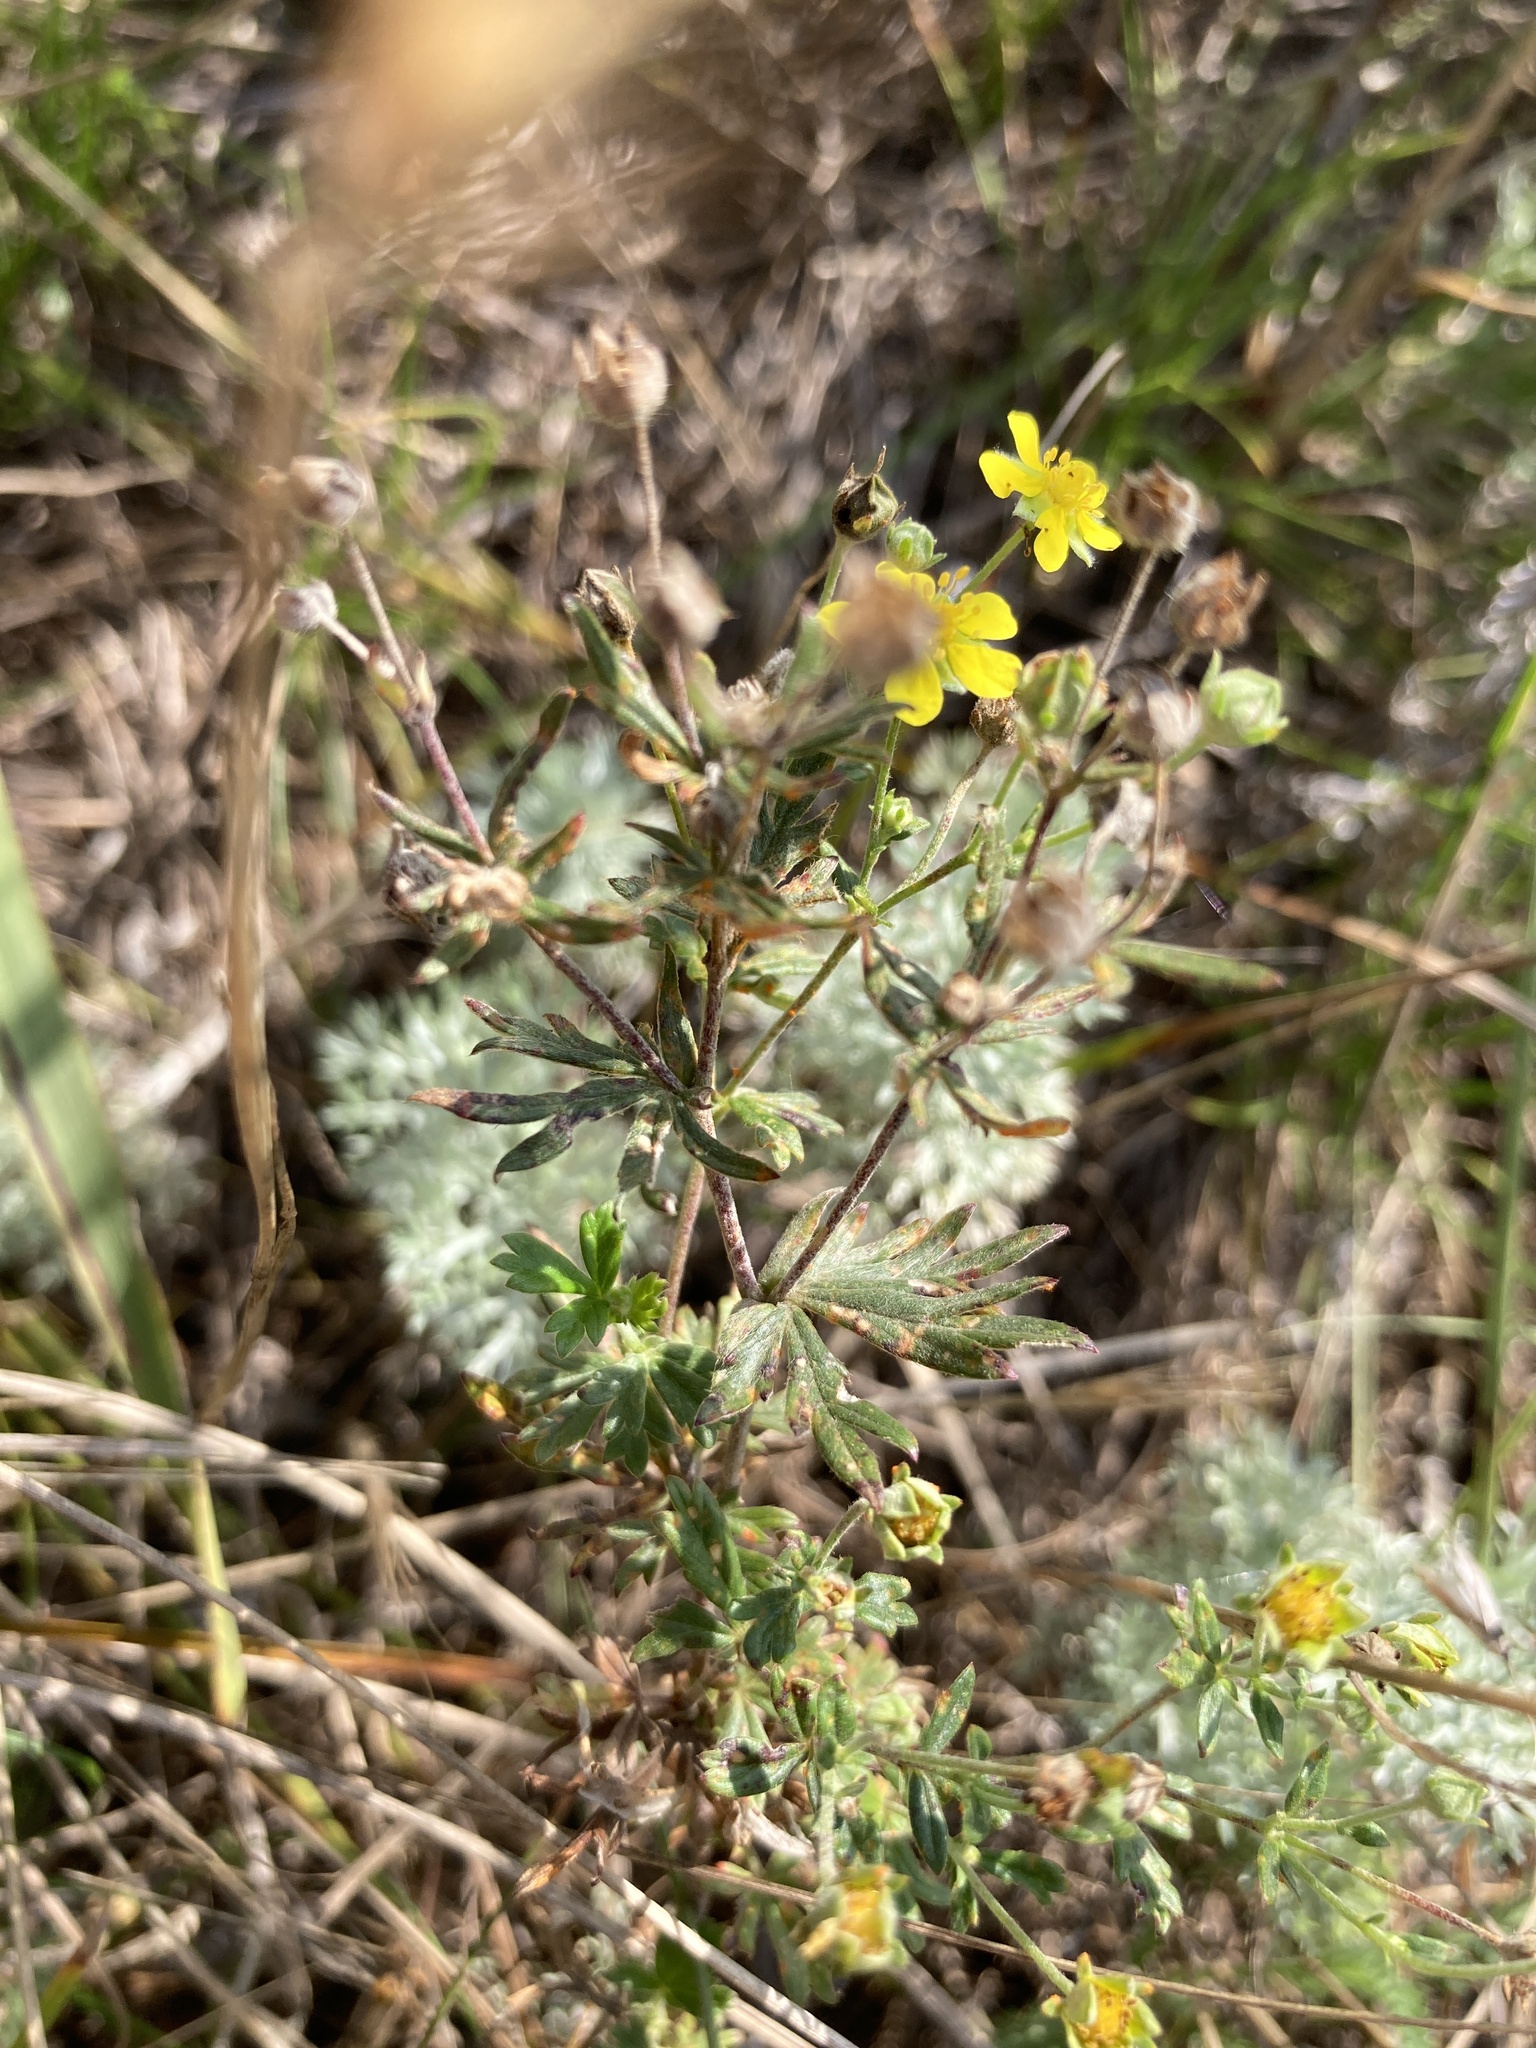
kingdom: Plantae
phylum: Tracheophyta
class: Magnoliopsida
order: Rosales
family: Rosaceae
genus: Potentilla
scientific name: Potentilla argentea
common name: Hoary cinquefoil
